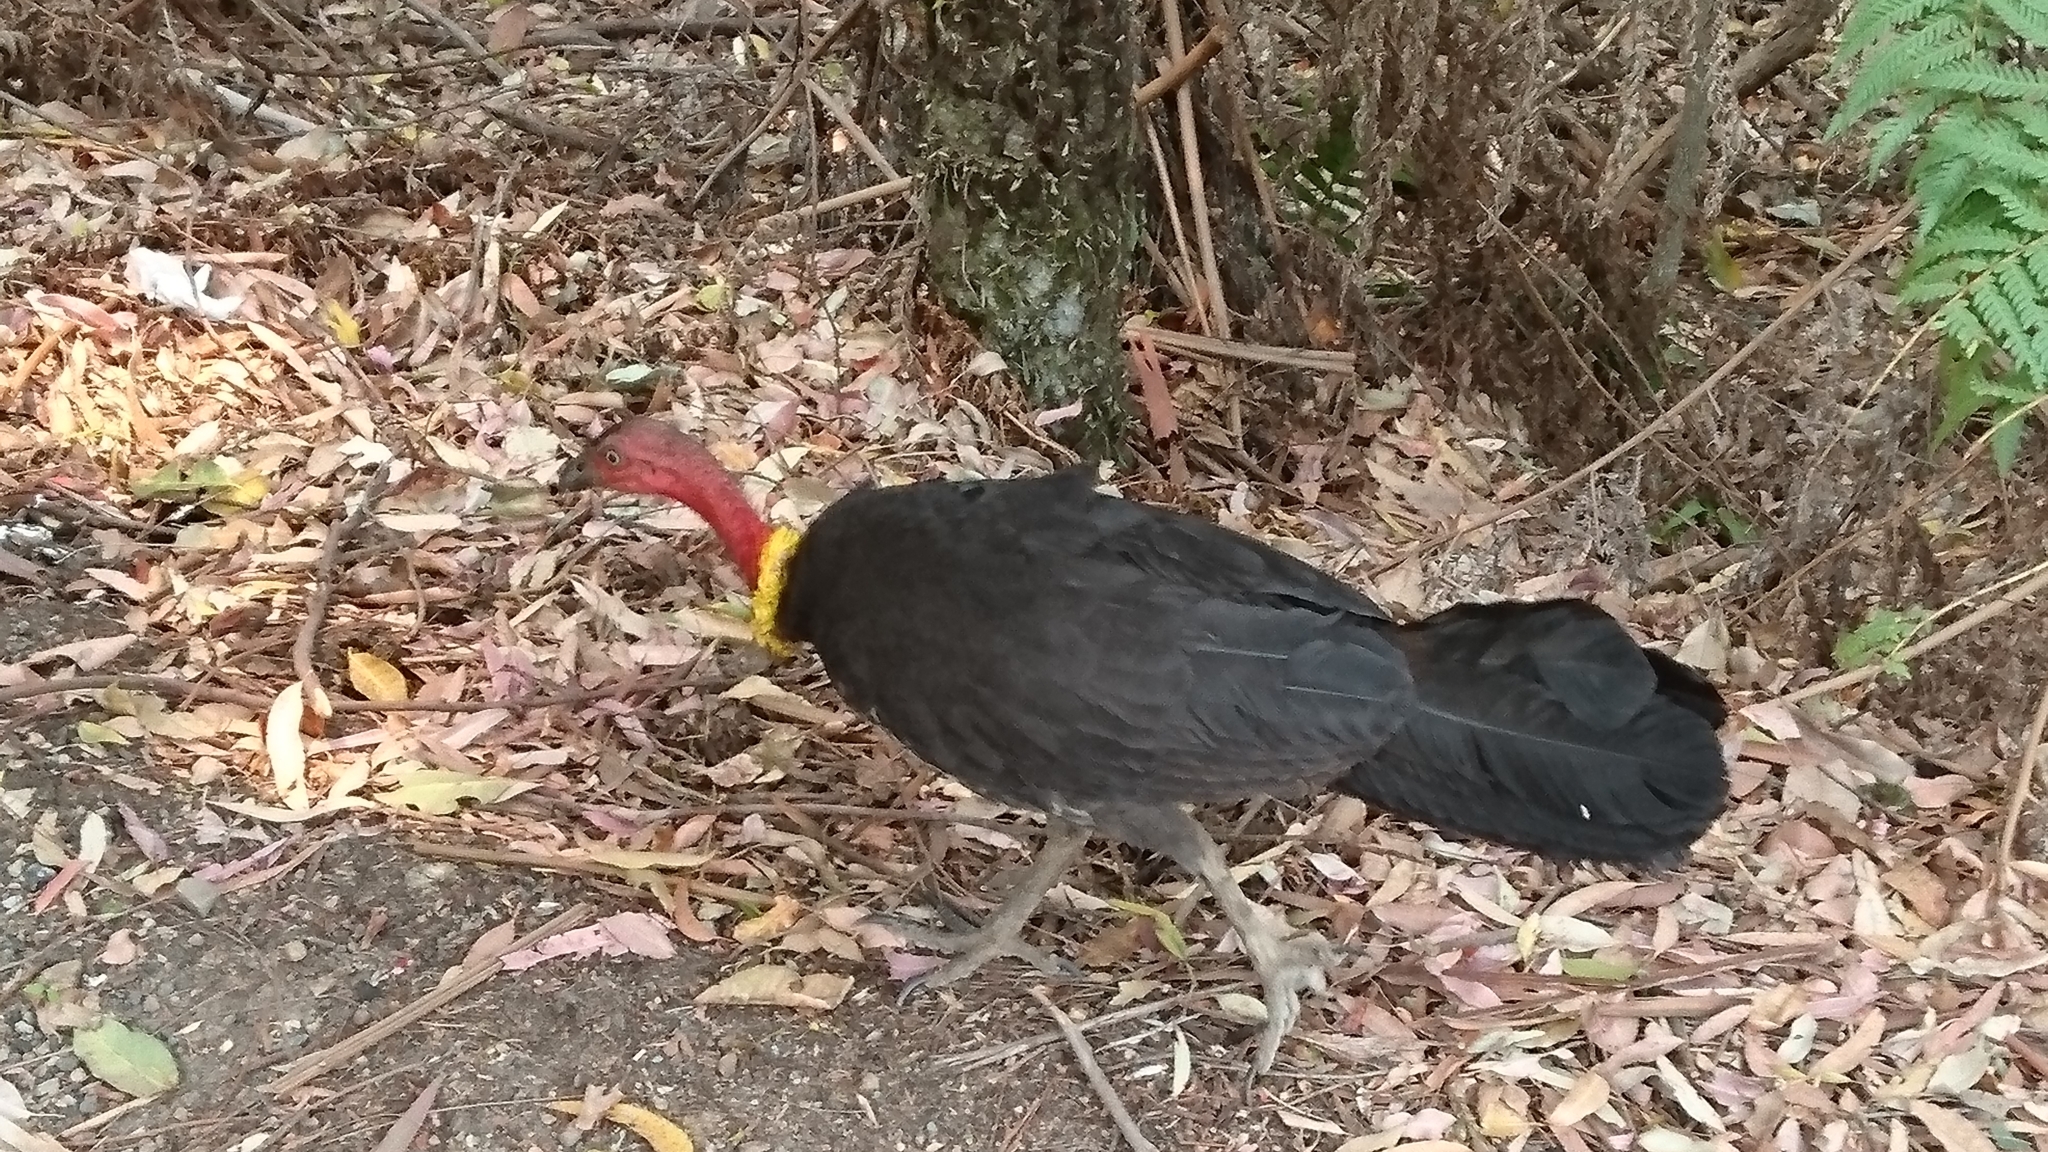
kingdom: Animalia
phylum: Chordata
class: Aves
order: Galliformes
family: Megapodiidae
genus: Alectura
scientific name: Alectura lathami
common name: Australian brushturkey
